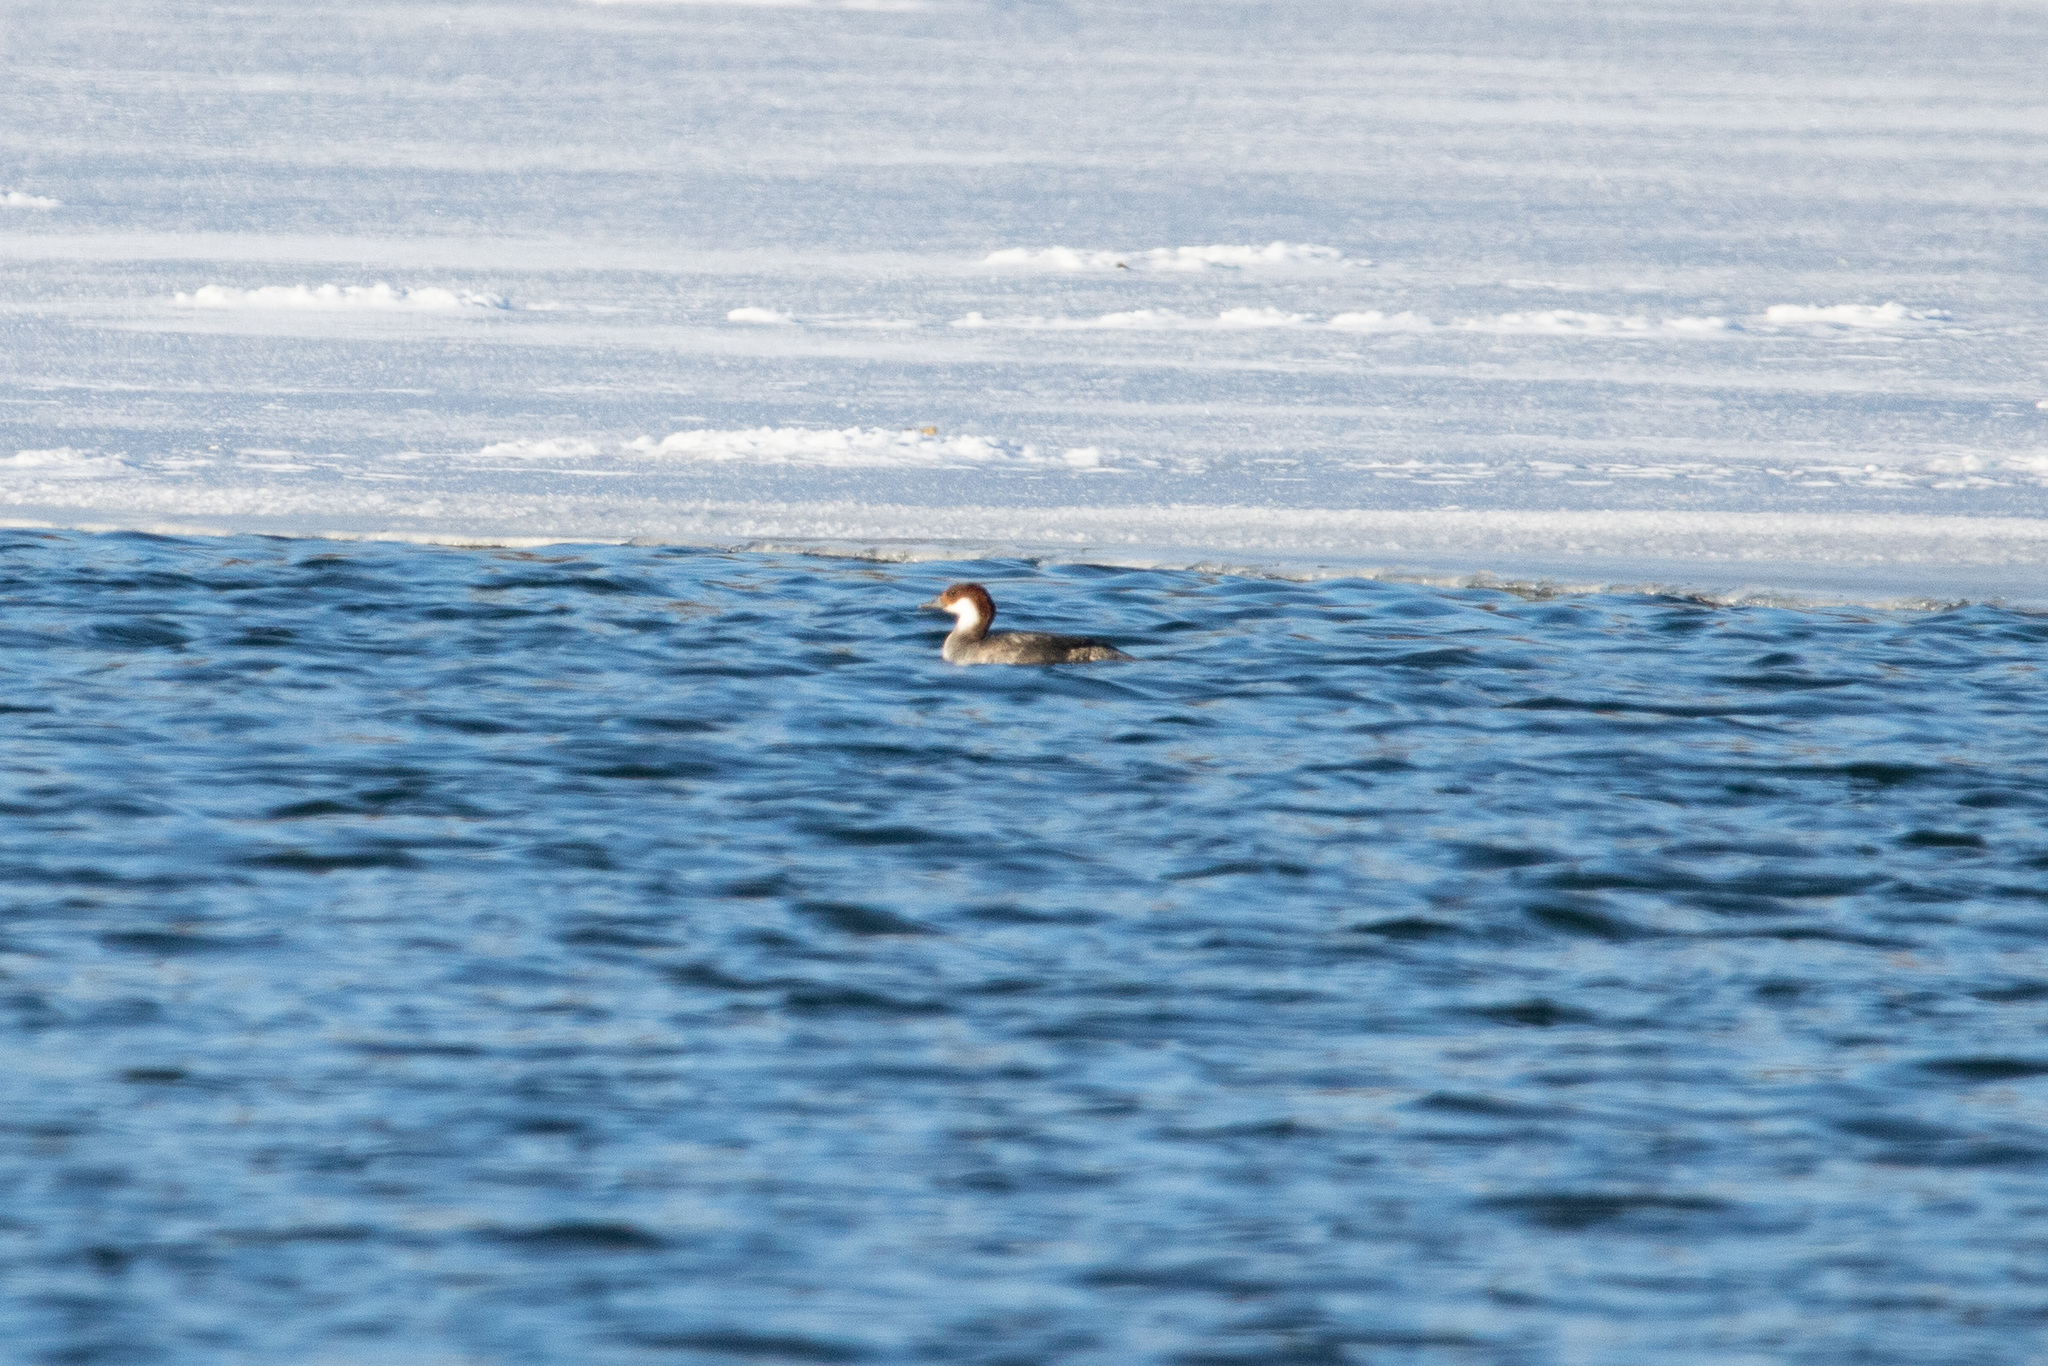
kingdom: Animalia
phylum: Chordata
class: Aves
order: Anseriformes
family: Anatidae
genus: Mergellus
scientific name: Mergellus albellus
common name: Smew
